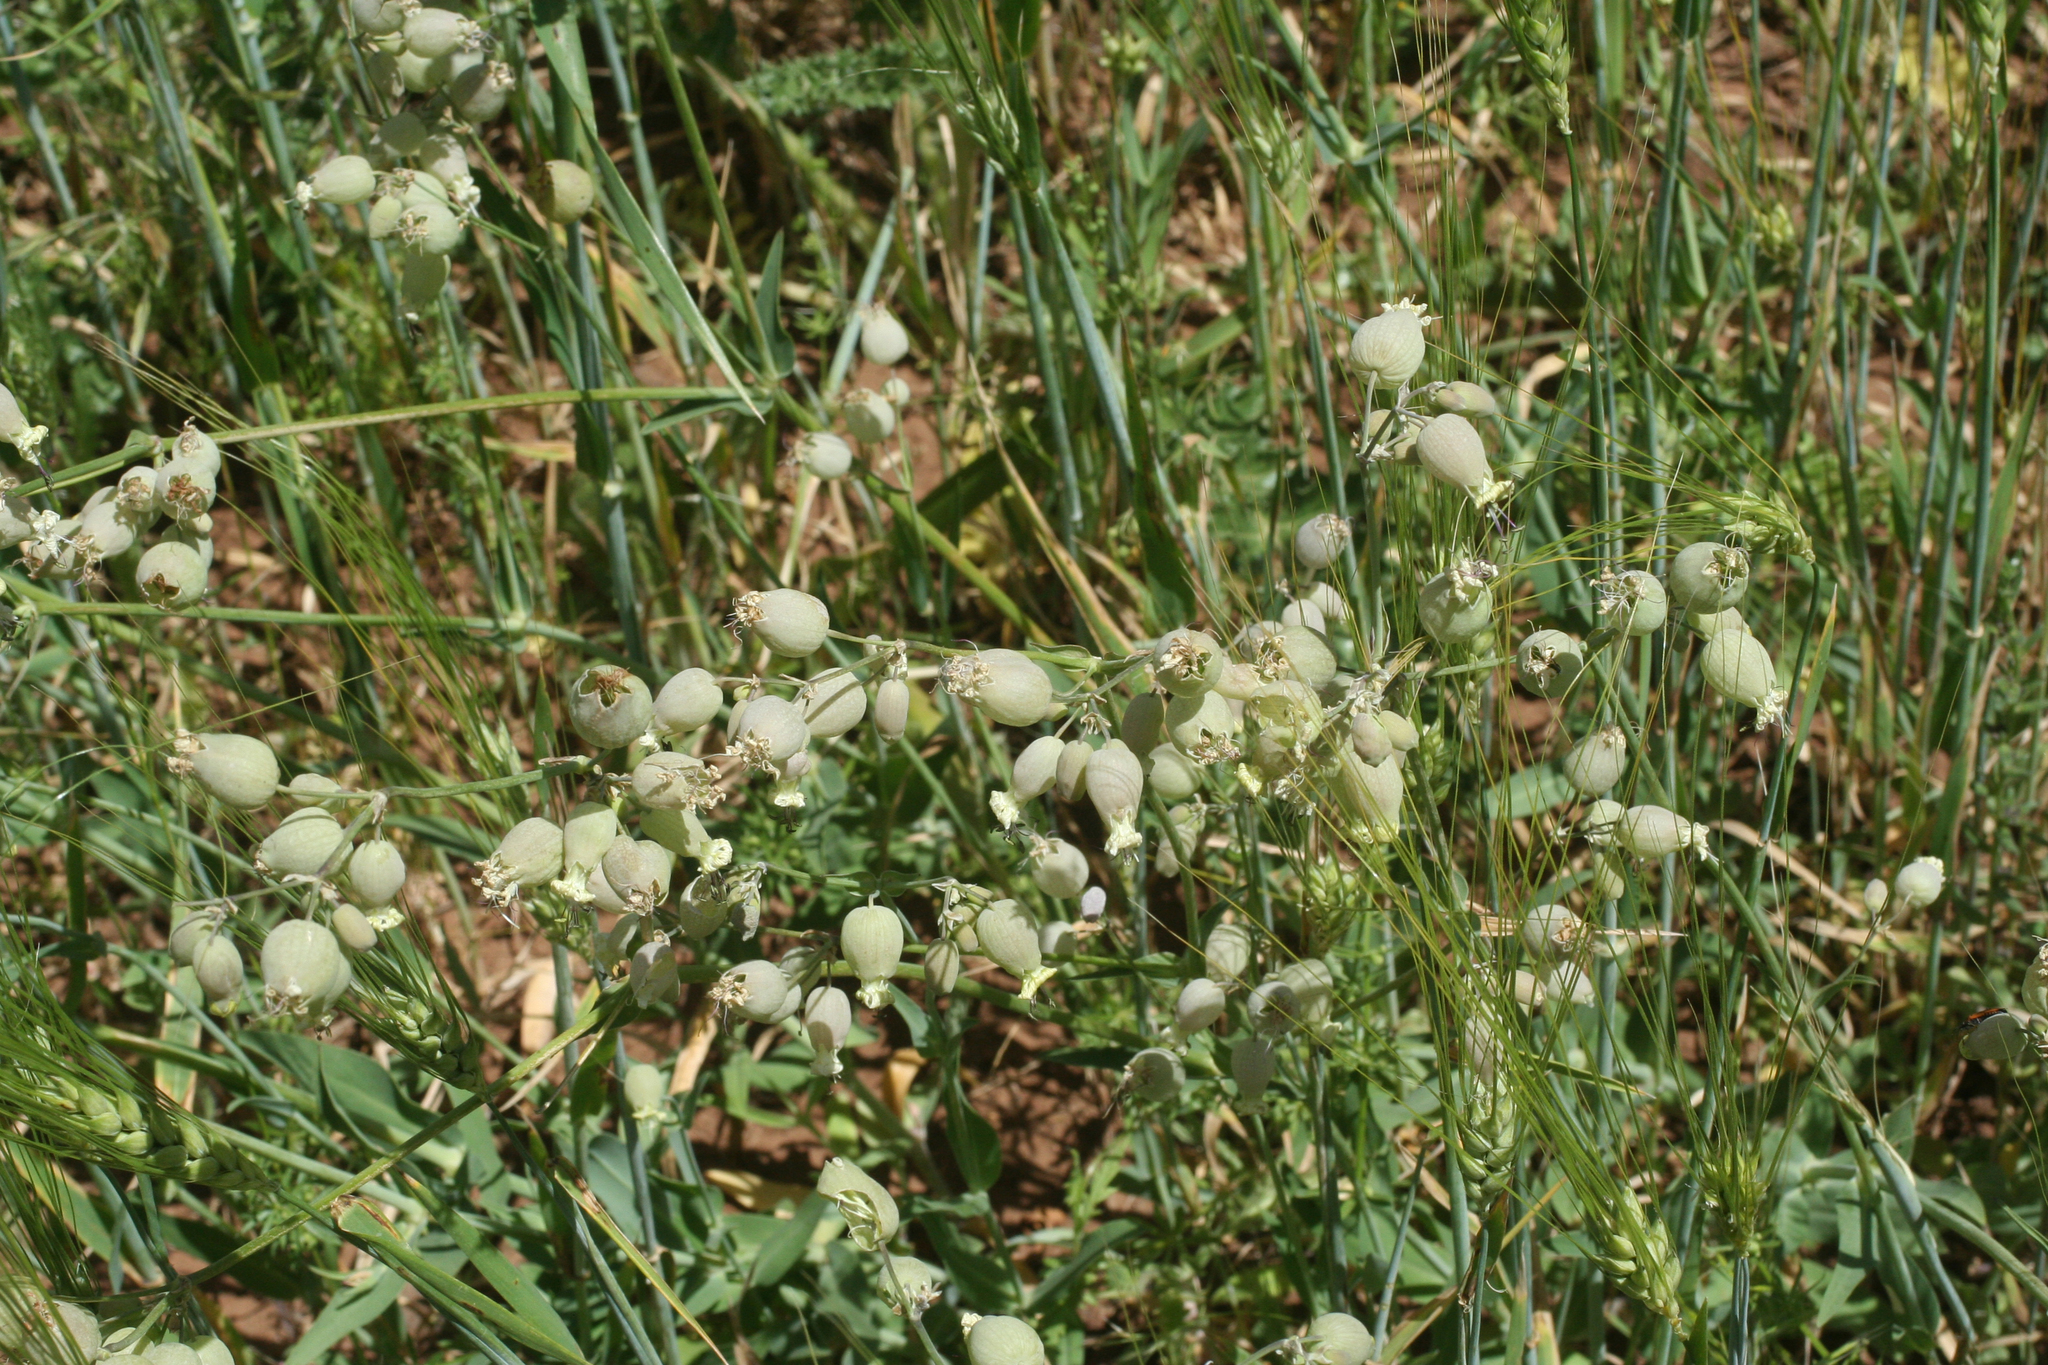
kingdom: Plantae
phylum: Tracheophyta
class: Magnoliopsida
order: Caryophyllales
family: Caryophyllaceae
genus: Silene
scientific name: Silene vulgaris
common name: Bladder campion
